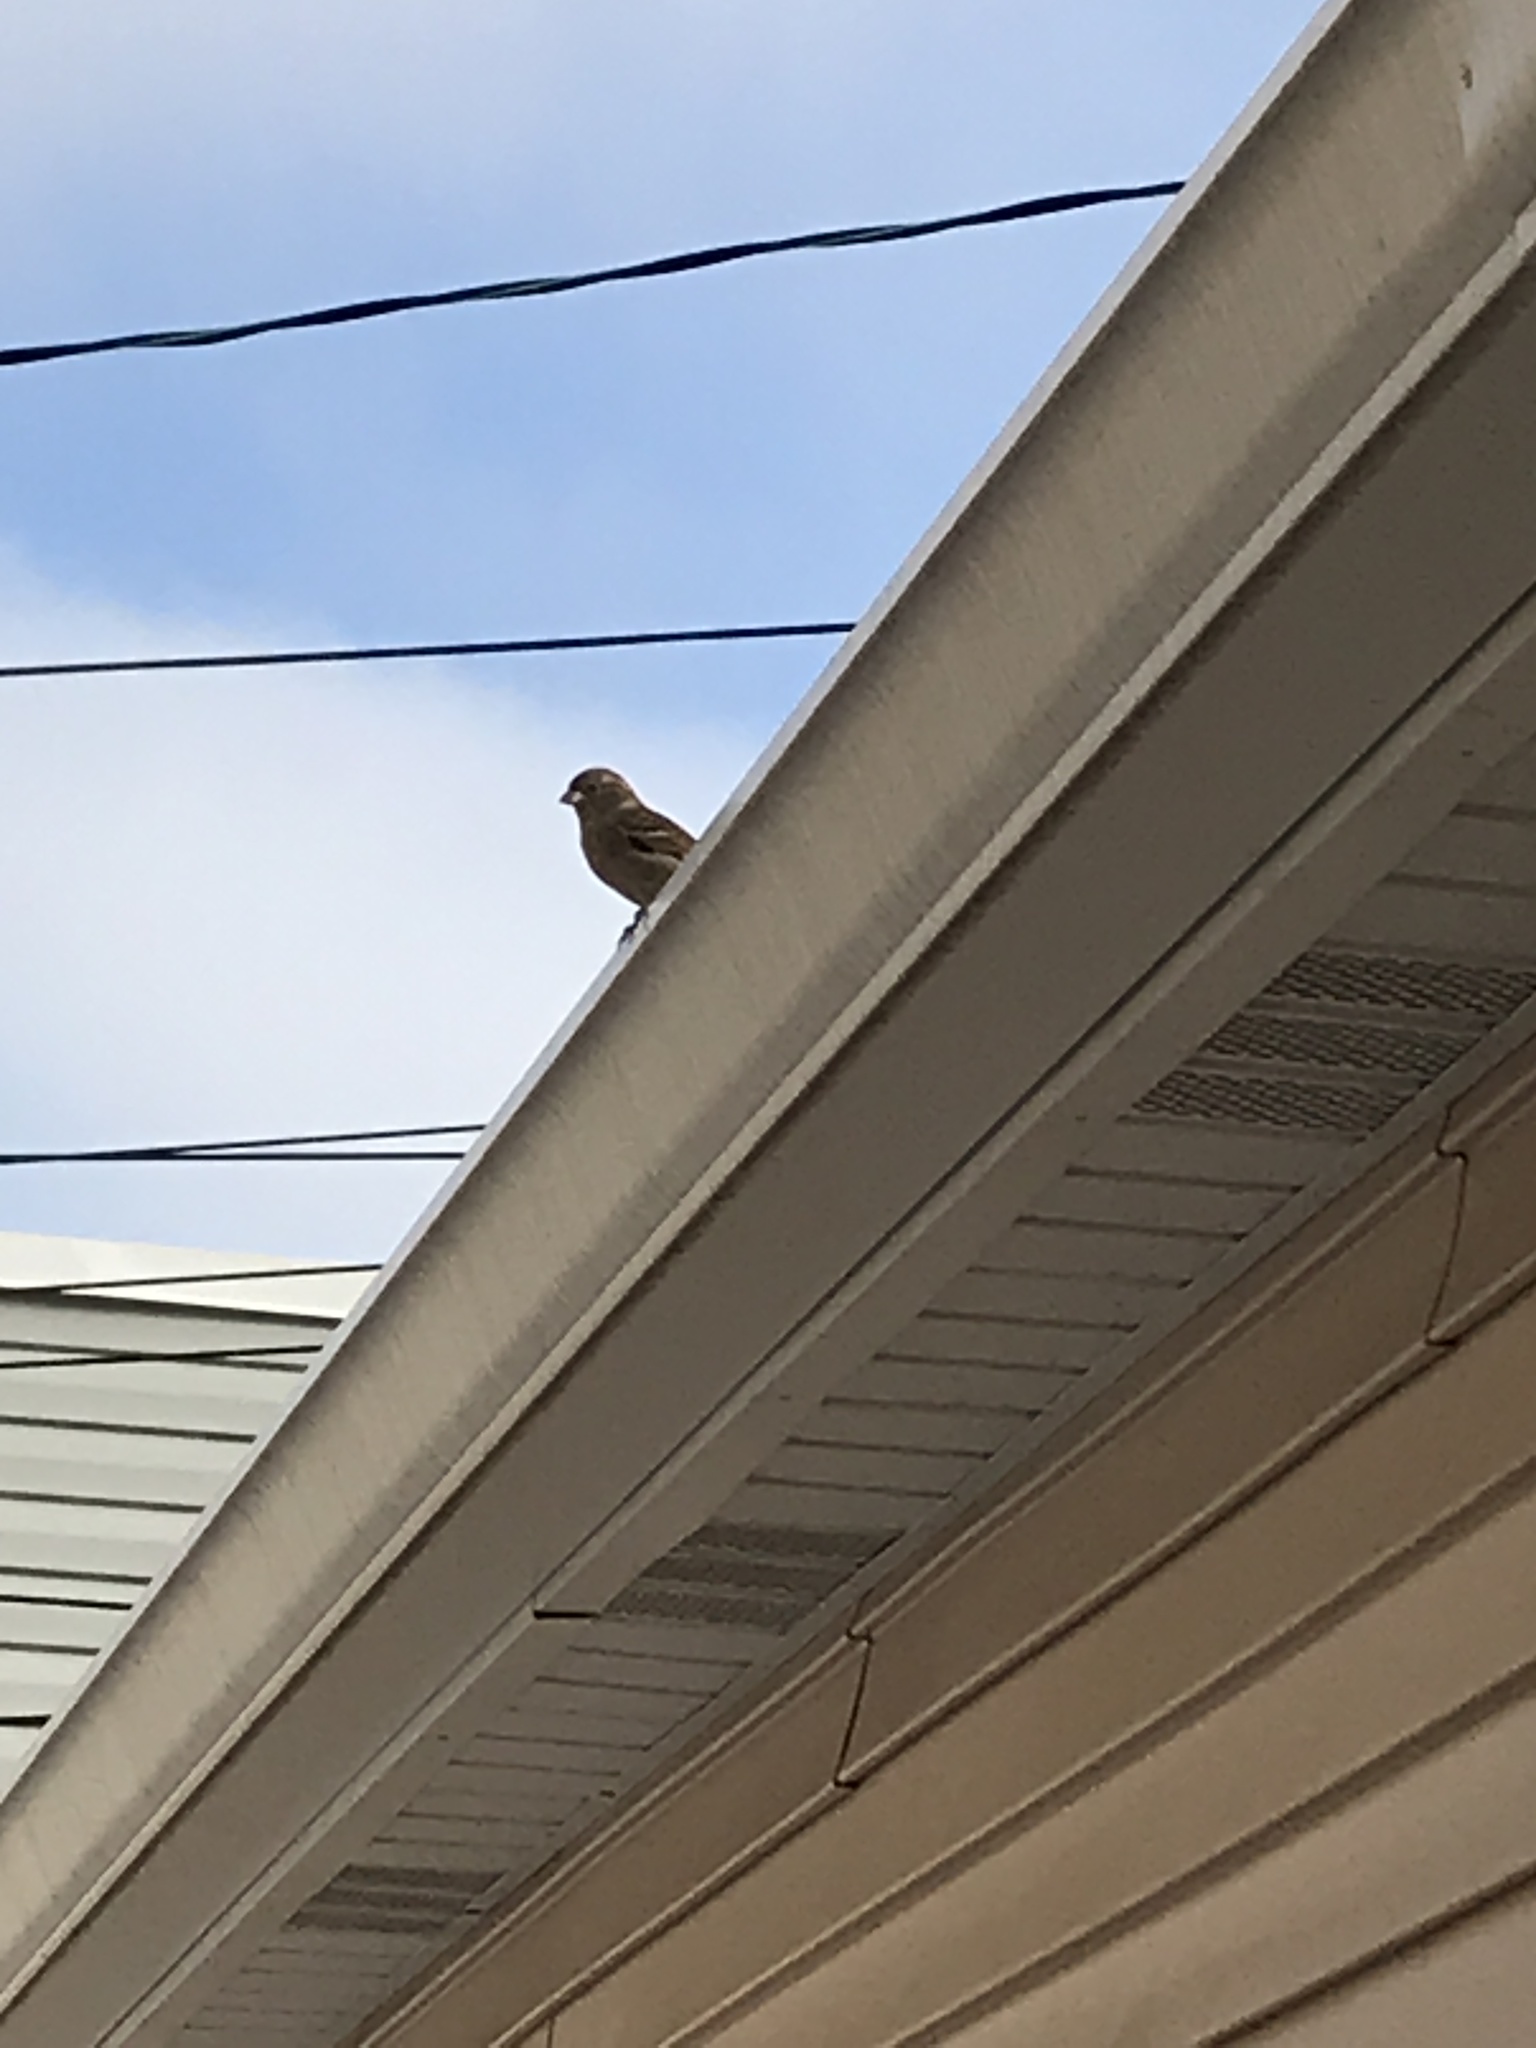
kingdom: Animalia
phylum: Chordata
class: Aves
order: Passeriformes
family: Passeridae
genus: Passer
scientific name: Passer domesticus
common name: House sparrow
